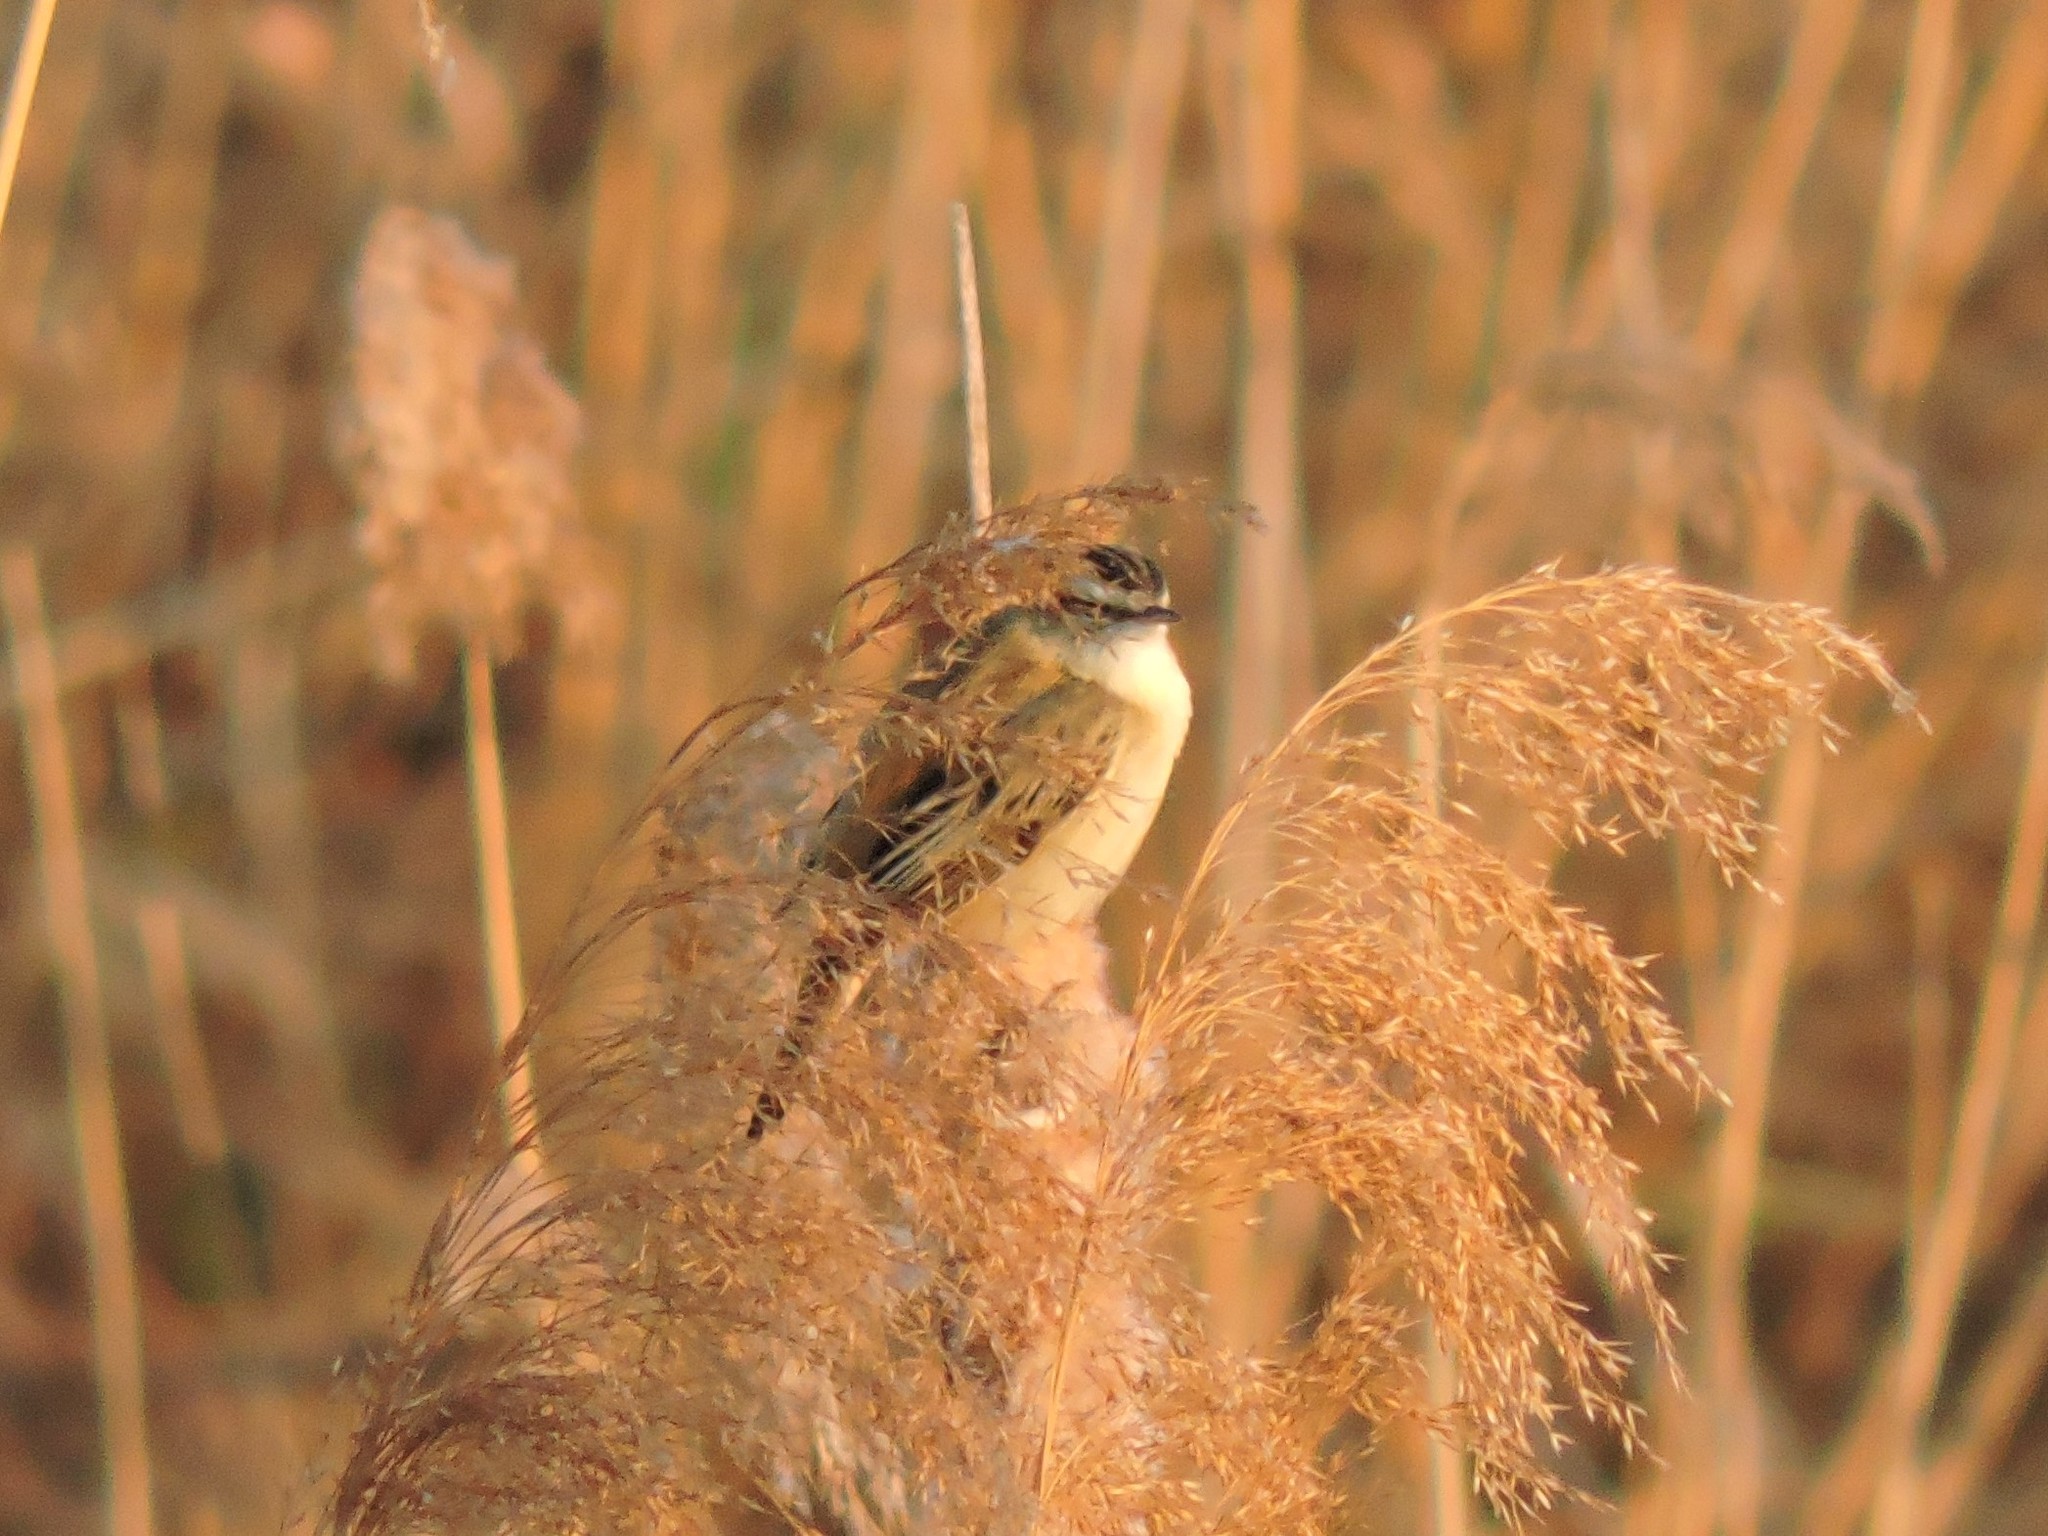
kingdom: Animalia
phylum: Chordata
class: Aves
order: Passeriformes
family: Acrocephalidae
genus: Acrocephalus
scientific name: Acrocephalus schoenobaenus
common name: Sedge warbler
